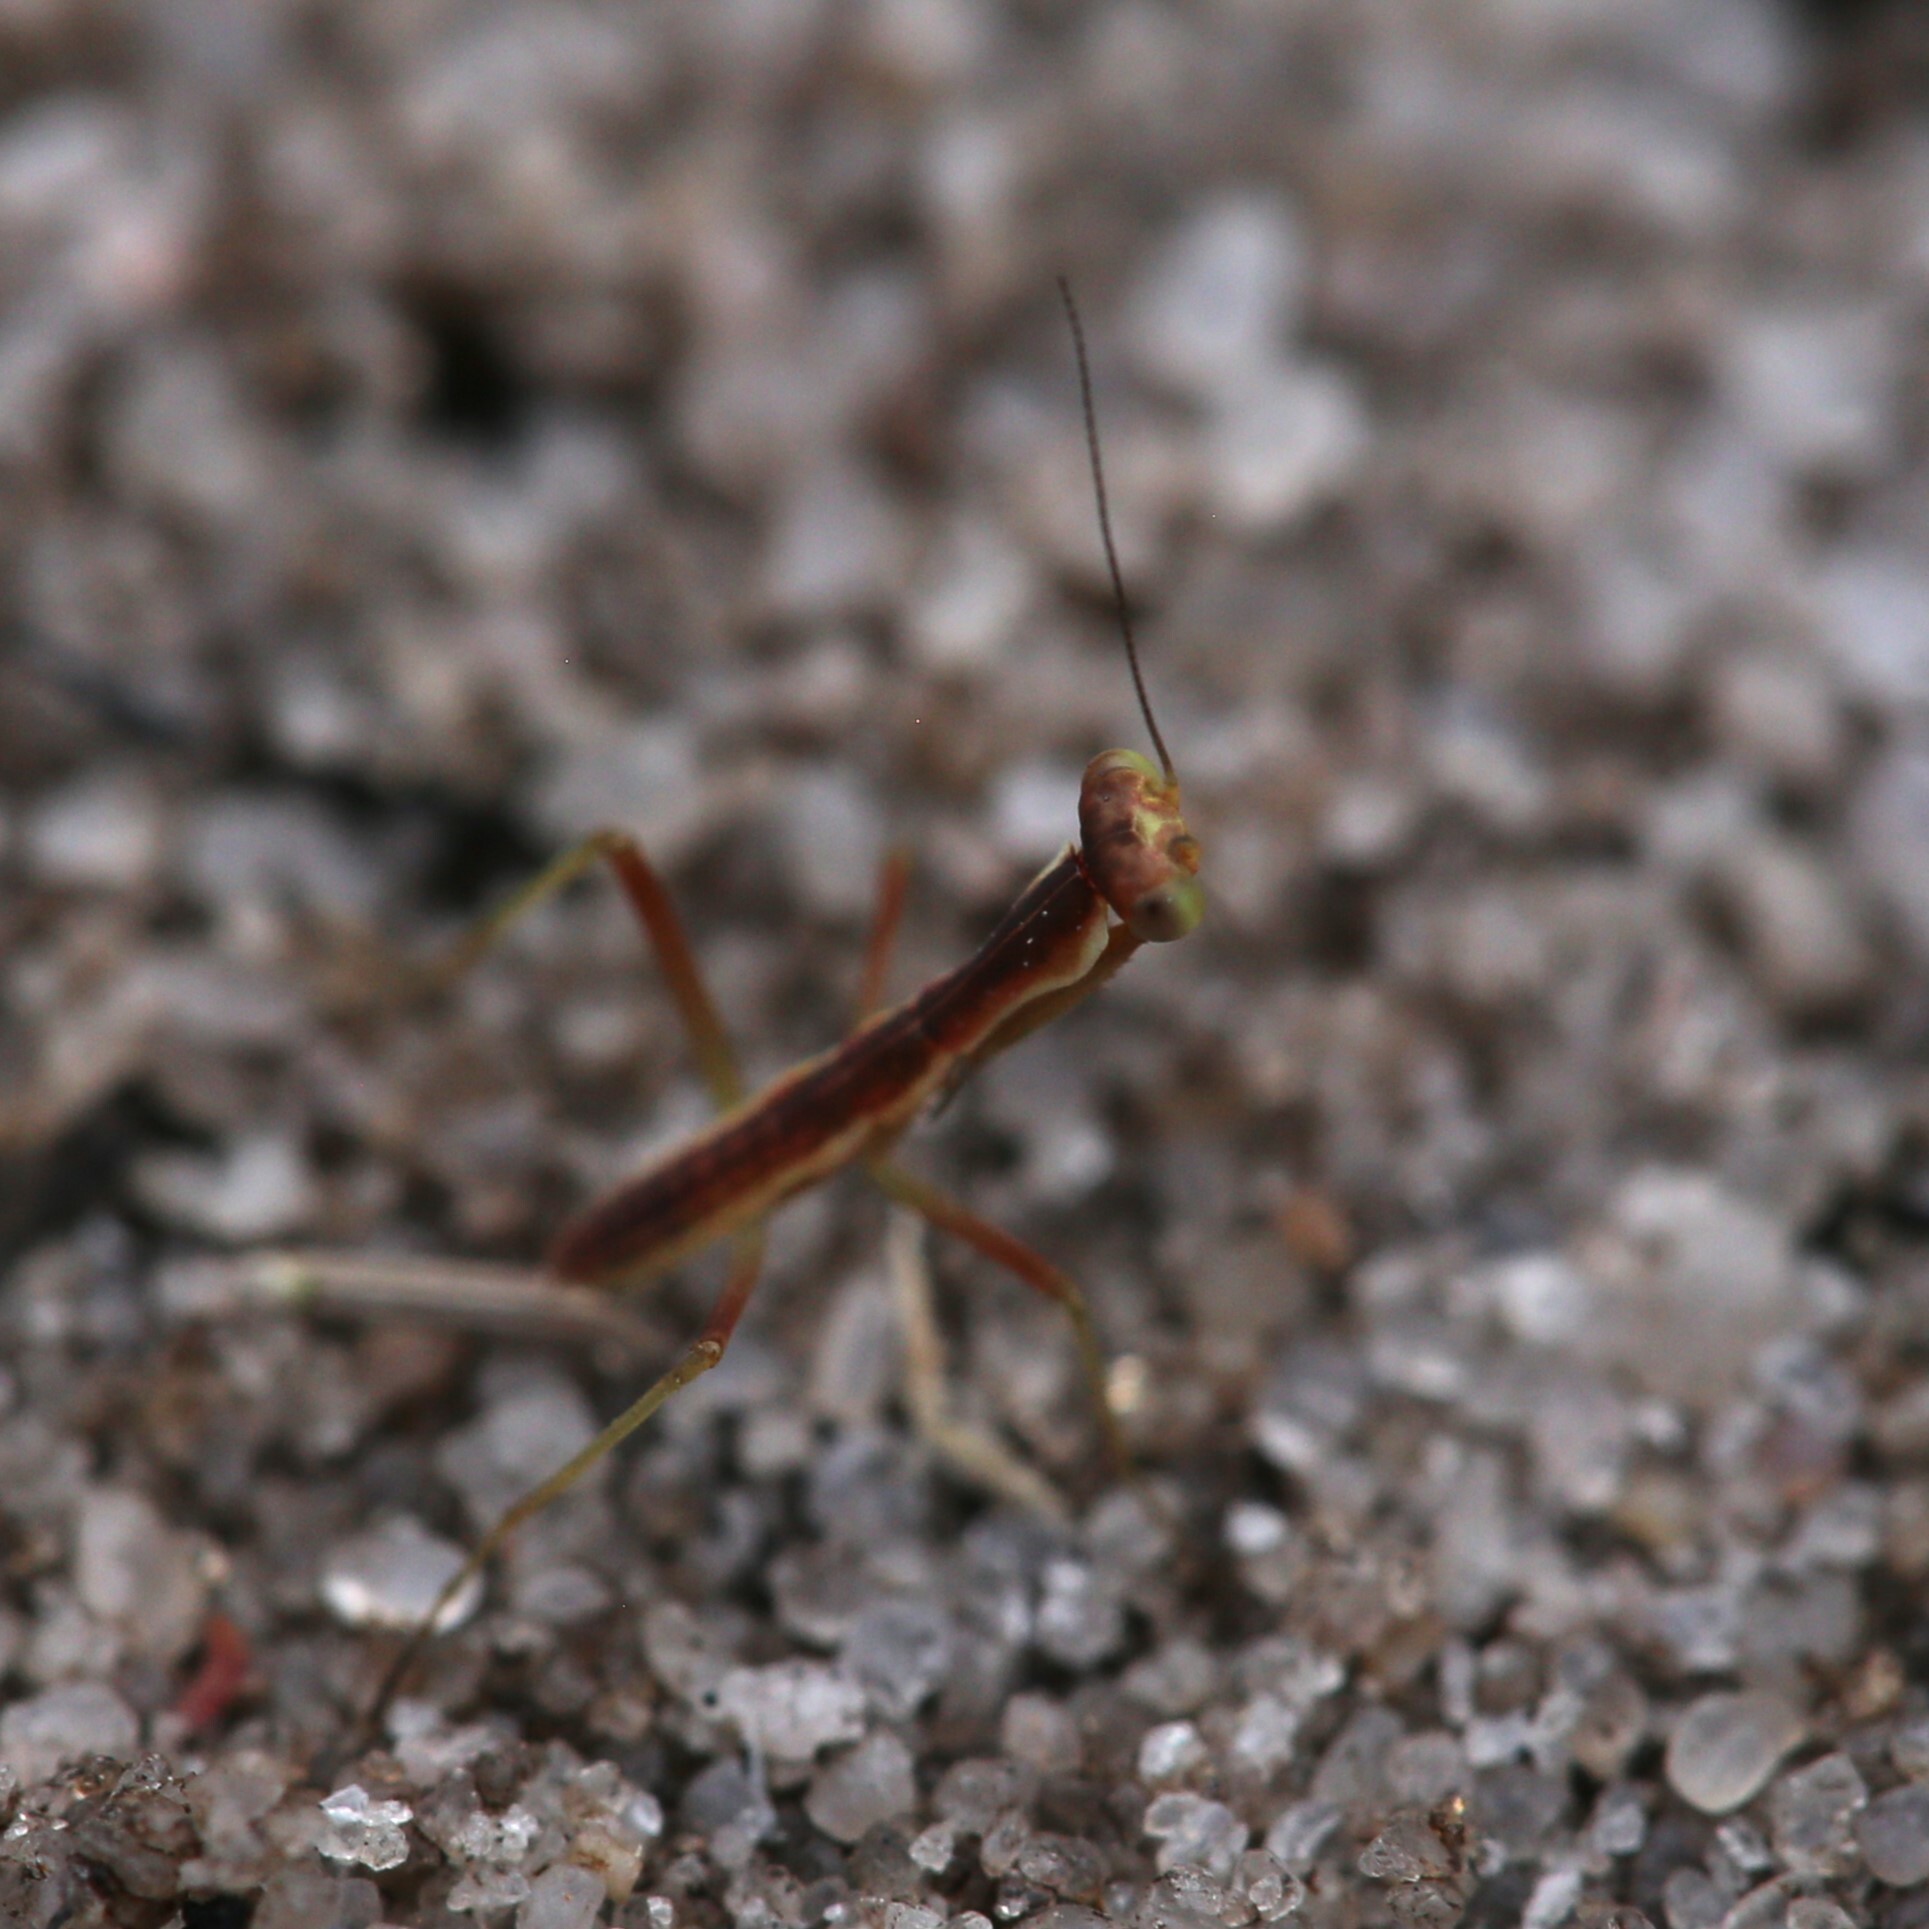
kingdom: Animalia
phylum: Arthropoda
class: Insecta
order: Mantodea
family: Mantidae
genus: Orthodera
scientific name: Orthodera ministralis
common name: Mantis
